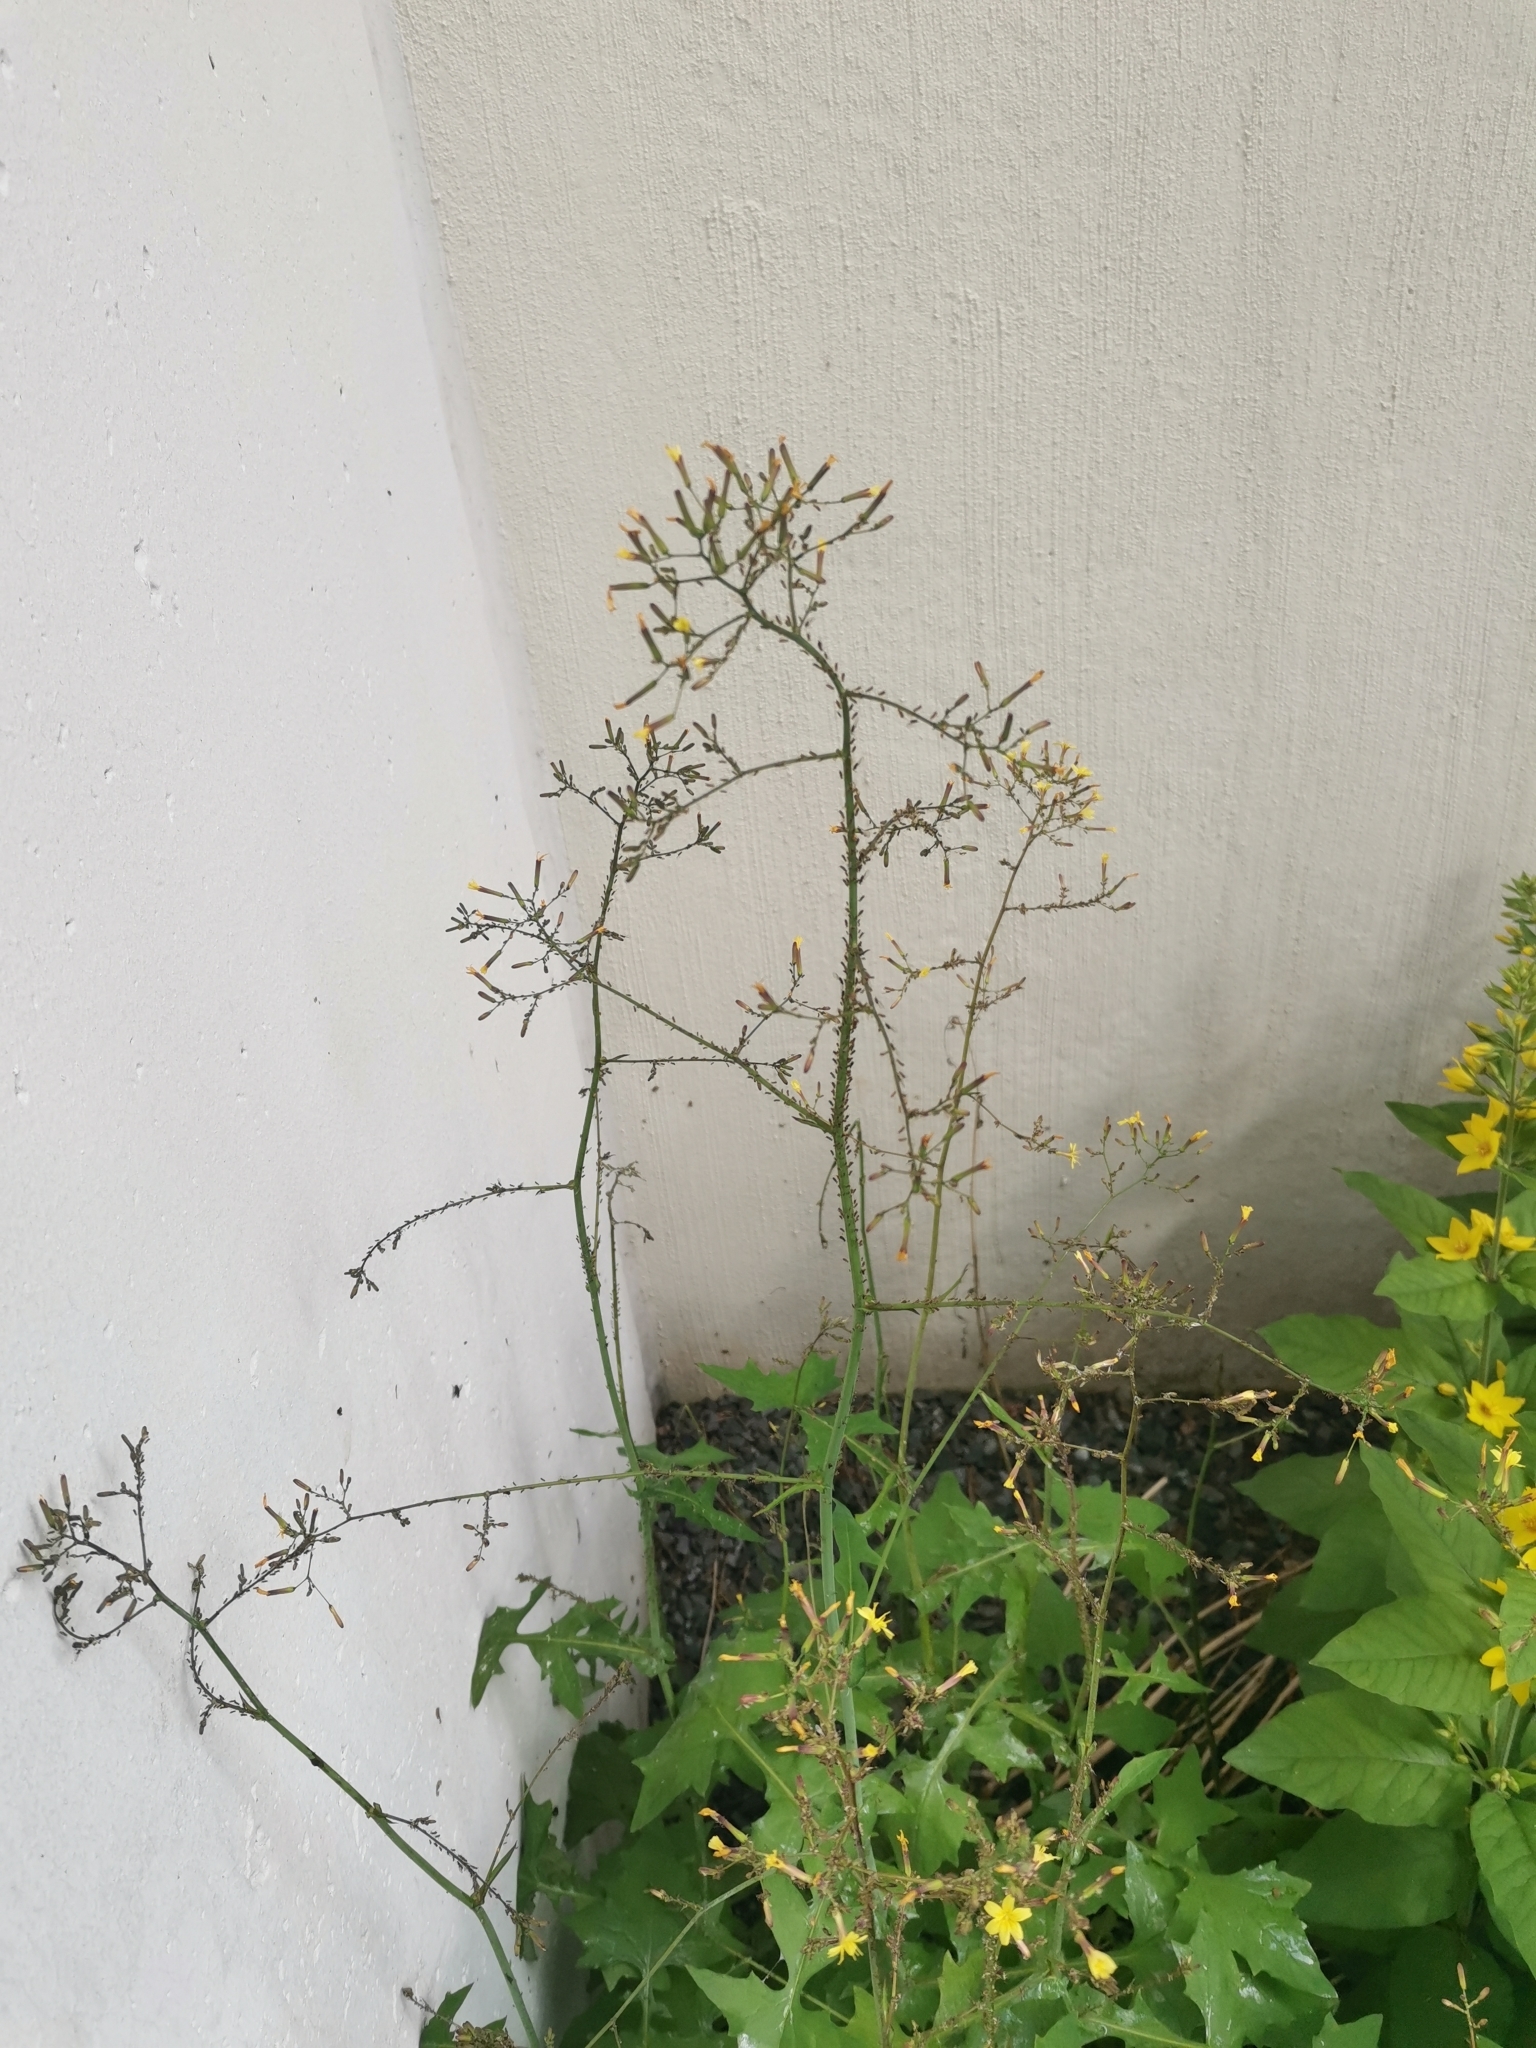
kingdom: Plantae
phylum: Tracheophyta
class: Magnoliopsida
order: Asterales
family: Asteraceae
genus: Mycelis
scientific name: Mycelis muralis
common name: Wall lettuce
